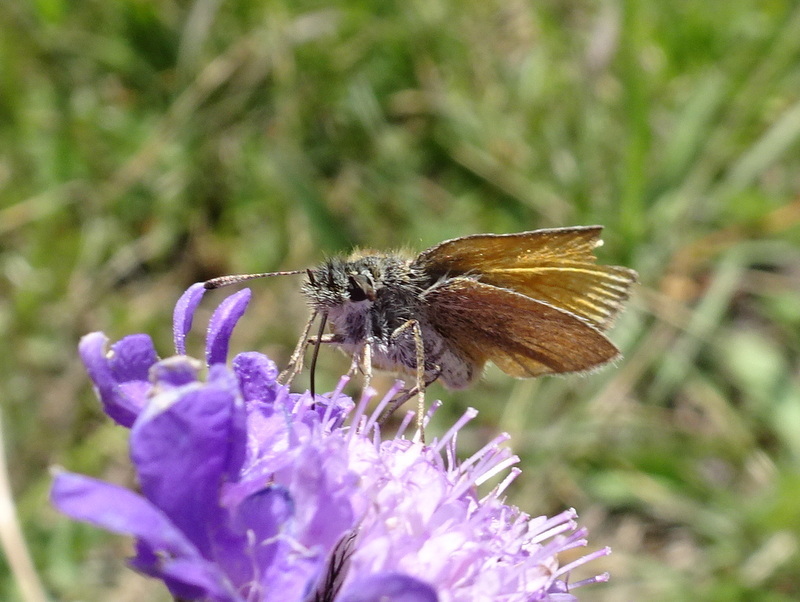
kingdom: Animalia
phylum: Arthropoda
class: Insecta
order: Lepidoptera
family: Hesperiidae
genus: Thymelicus
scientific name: Thymelicus lineola
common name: Essex skipper
